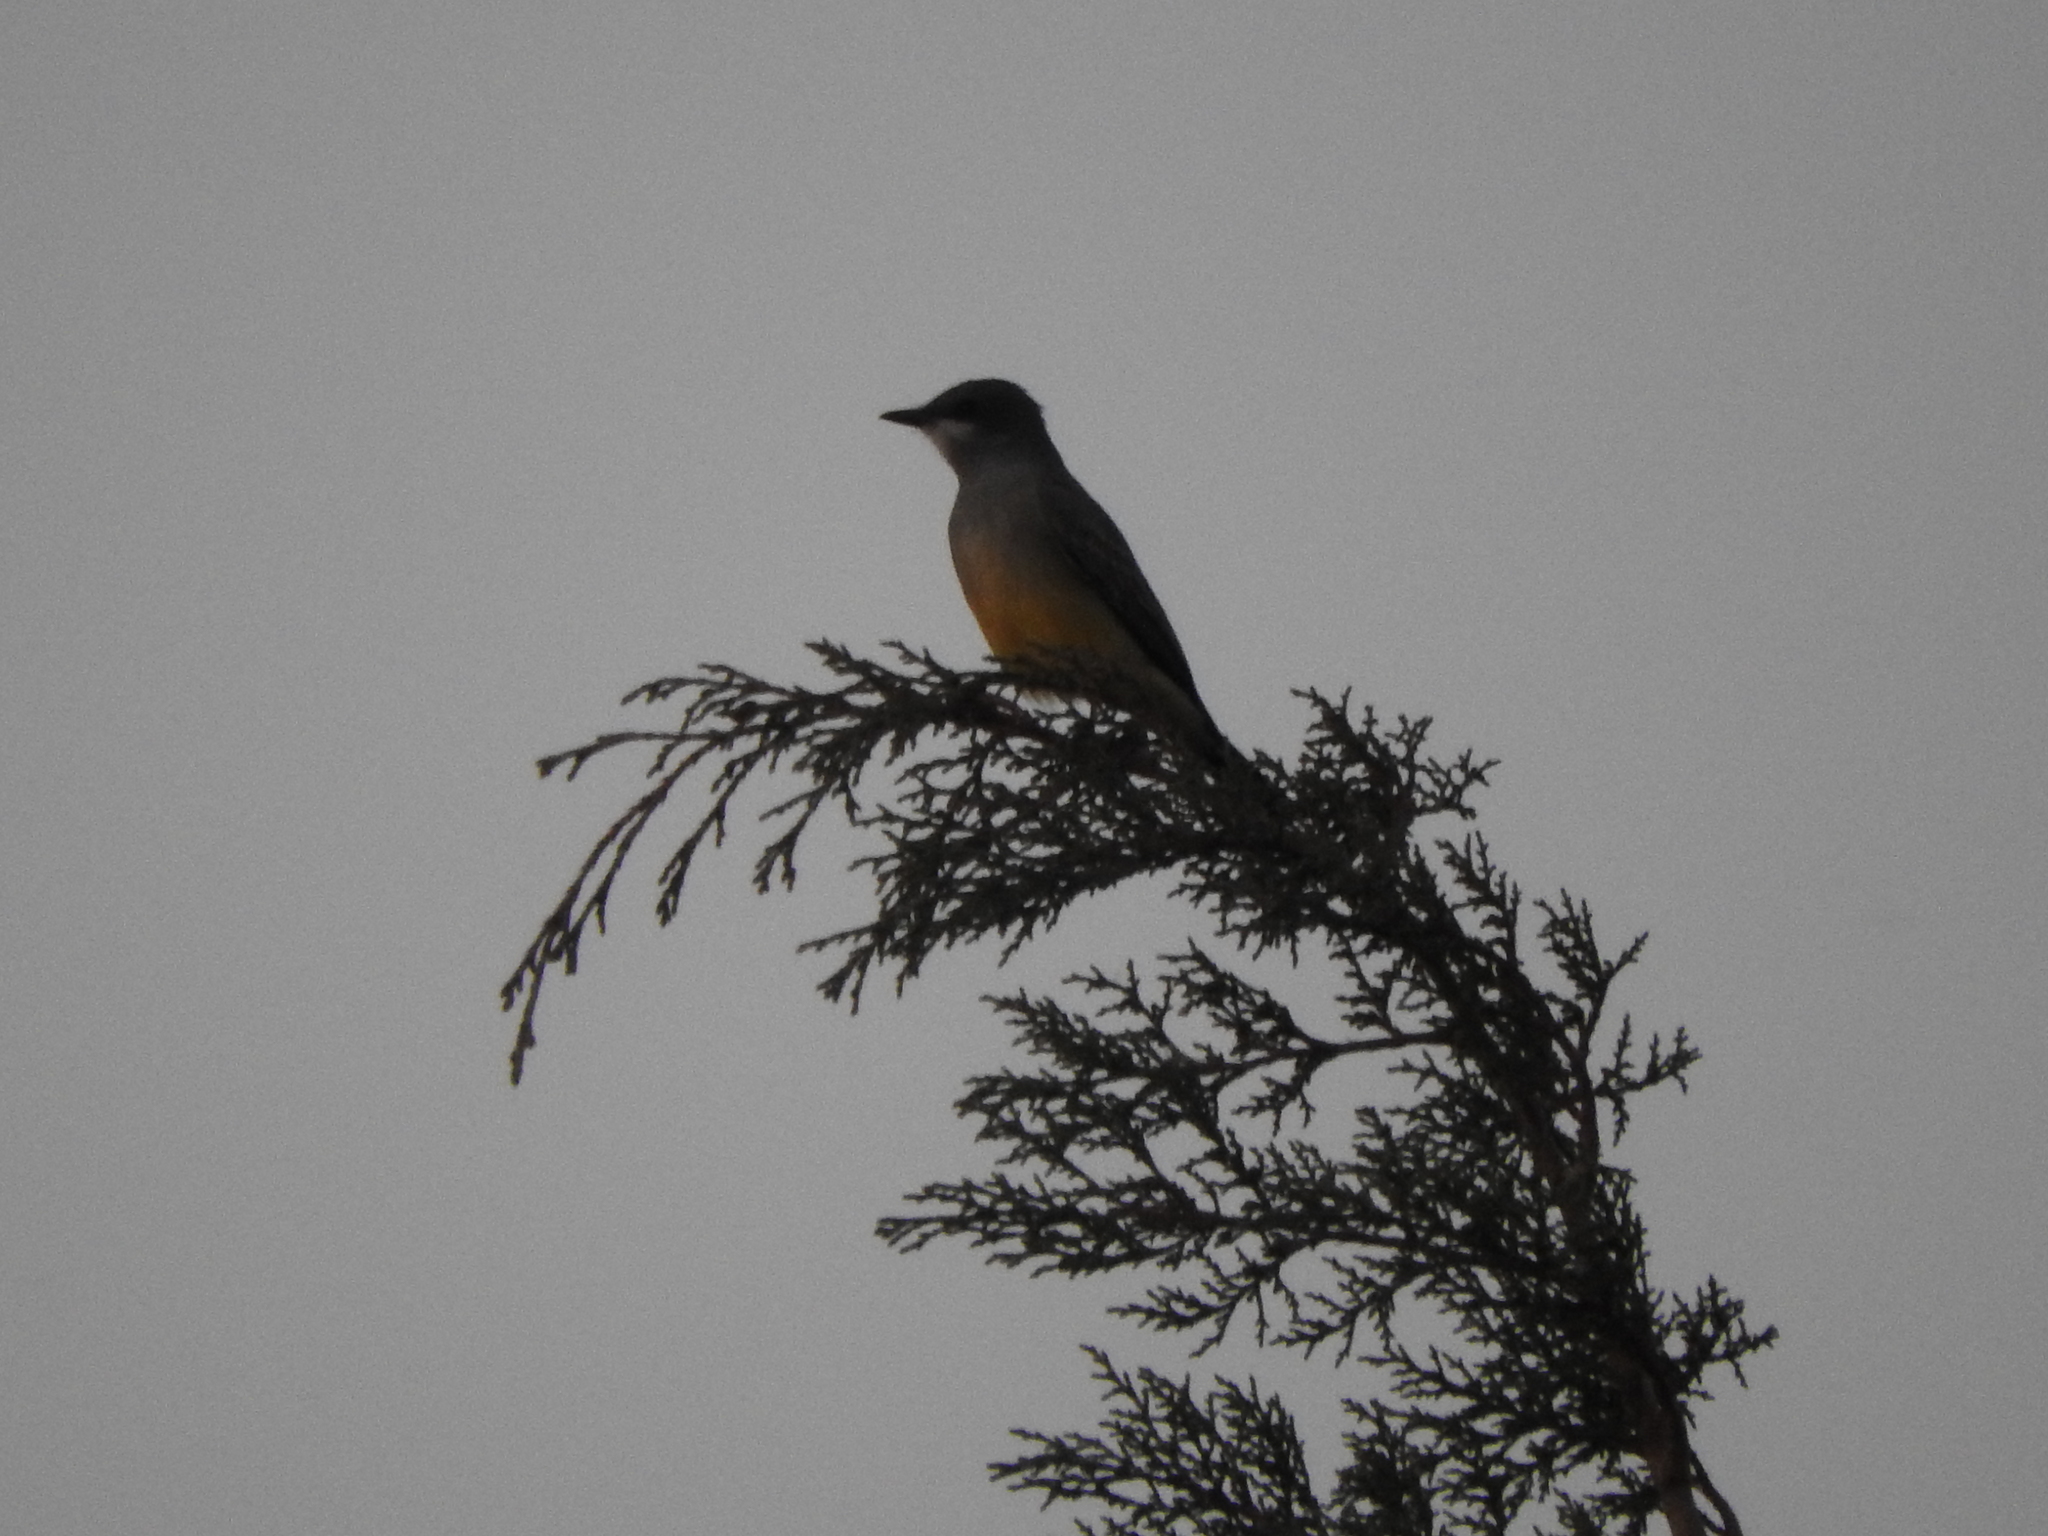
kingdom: Animalia
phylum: Chordata
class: Aves
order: Passeriformes
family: Tyrannidae
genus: Tyrannus
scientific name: Tyrannus vociferans
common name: Cassin's kingbird
